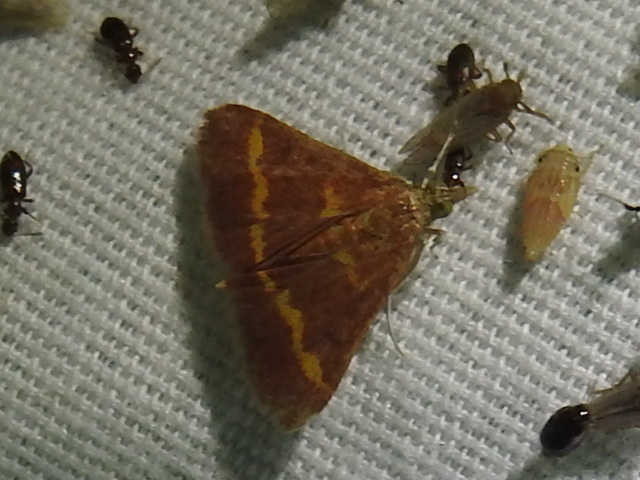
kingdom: Animalia
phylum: Arthropoda
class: Insecta
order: Lepidoptera
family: Crambidae
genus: Pyrausta
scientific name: Pyrausta pseuderosnealis
